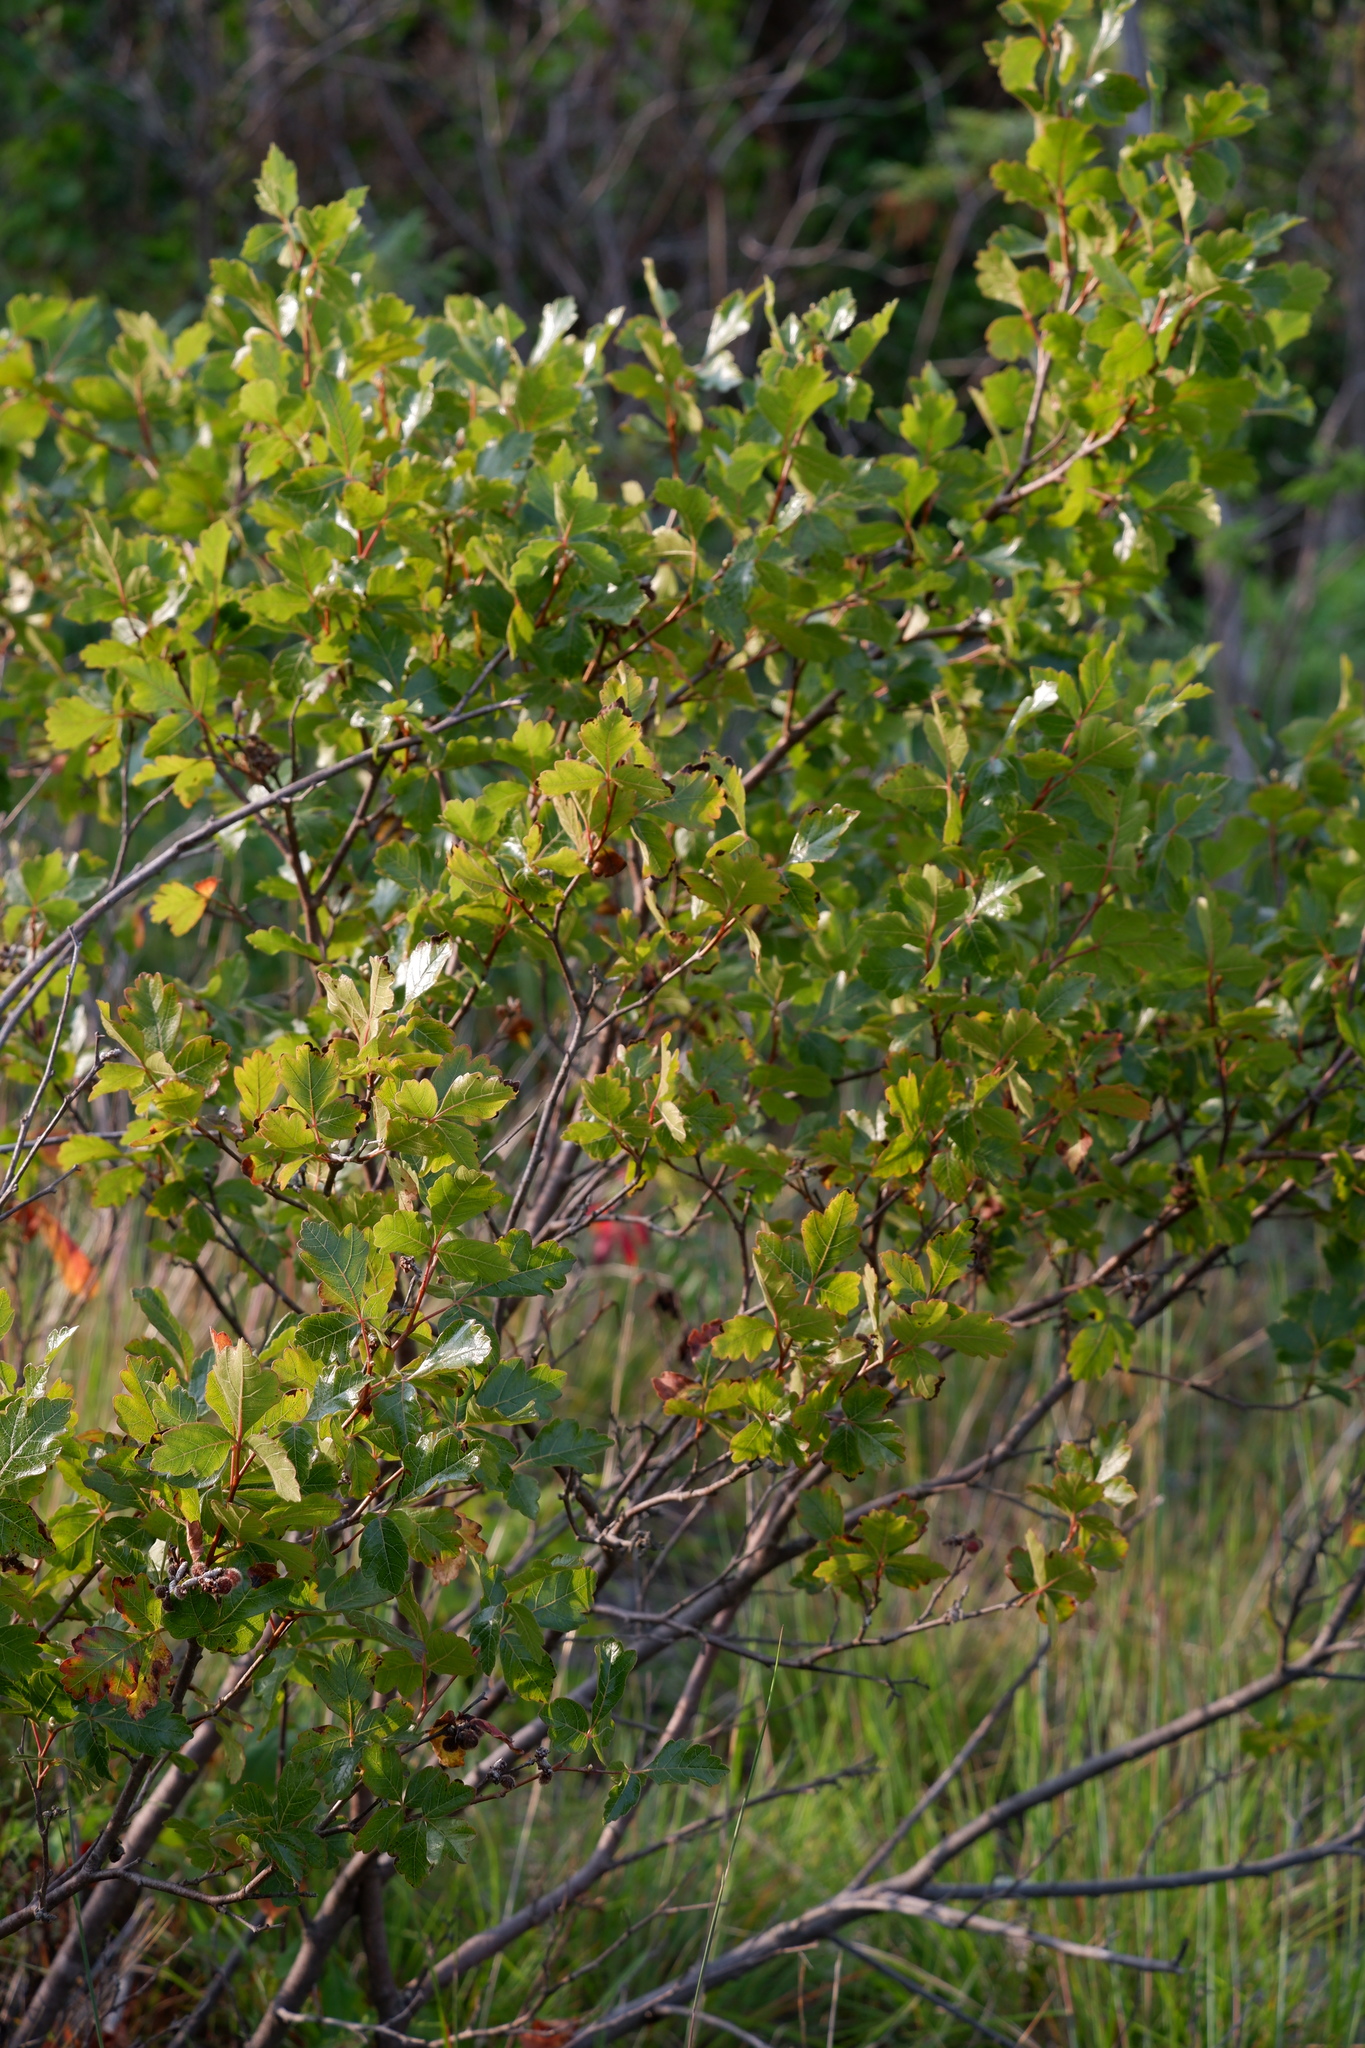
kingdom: Plantae
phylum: Tracheophyta
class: Magnoliopsida
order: Sapindales
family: Anacardiaceae
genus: Rhus
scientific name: Rhus aromatica
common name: Aromatic sumac
